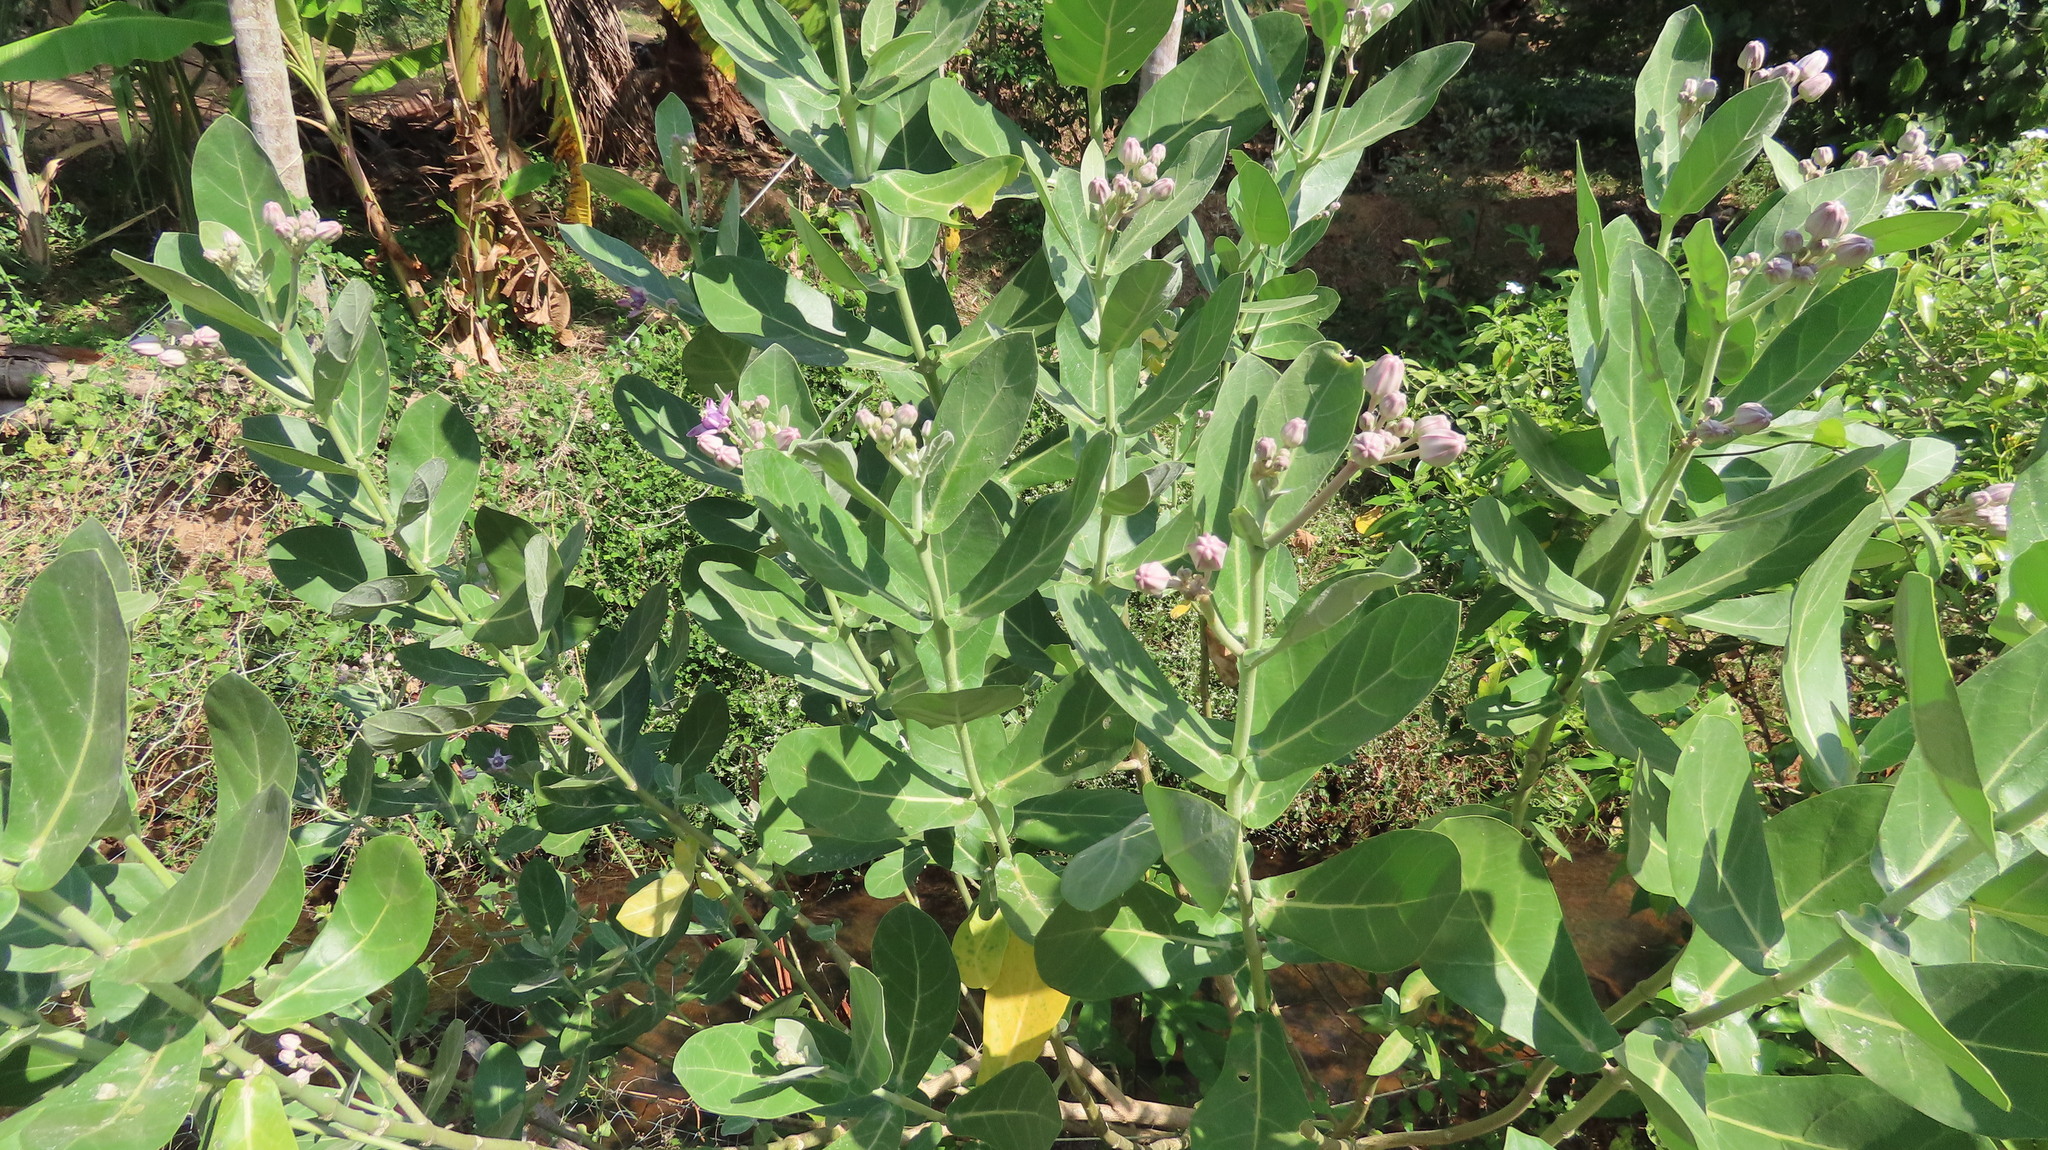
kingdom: Plantae
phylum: Tracheophyta
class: Magnoliopsida
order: Gentianales
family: Apocynaceae
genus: Calotropis
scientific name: Calotropis gigantea
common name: Crown flower
